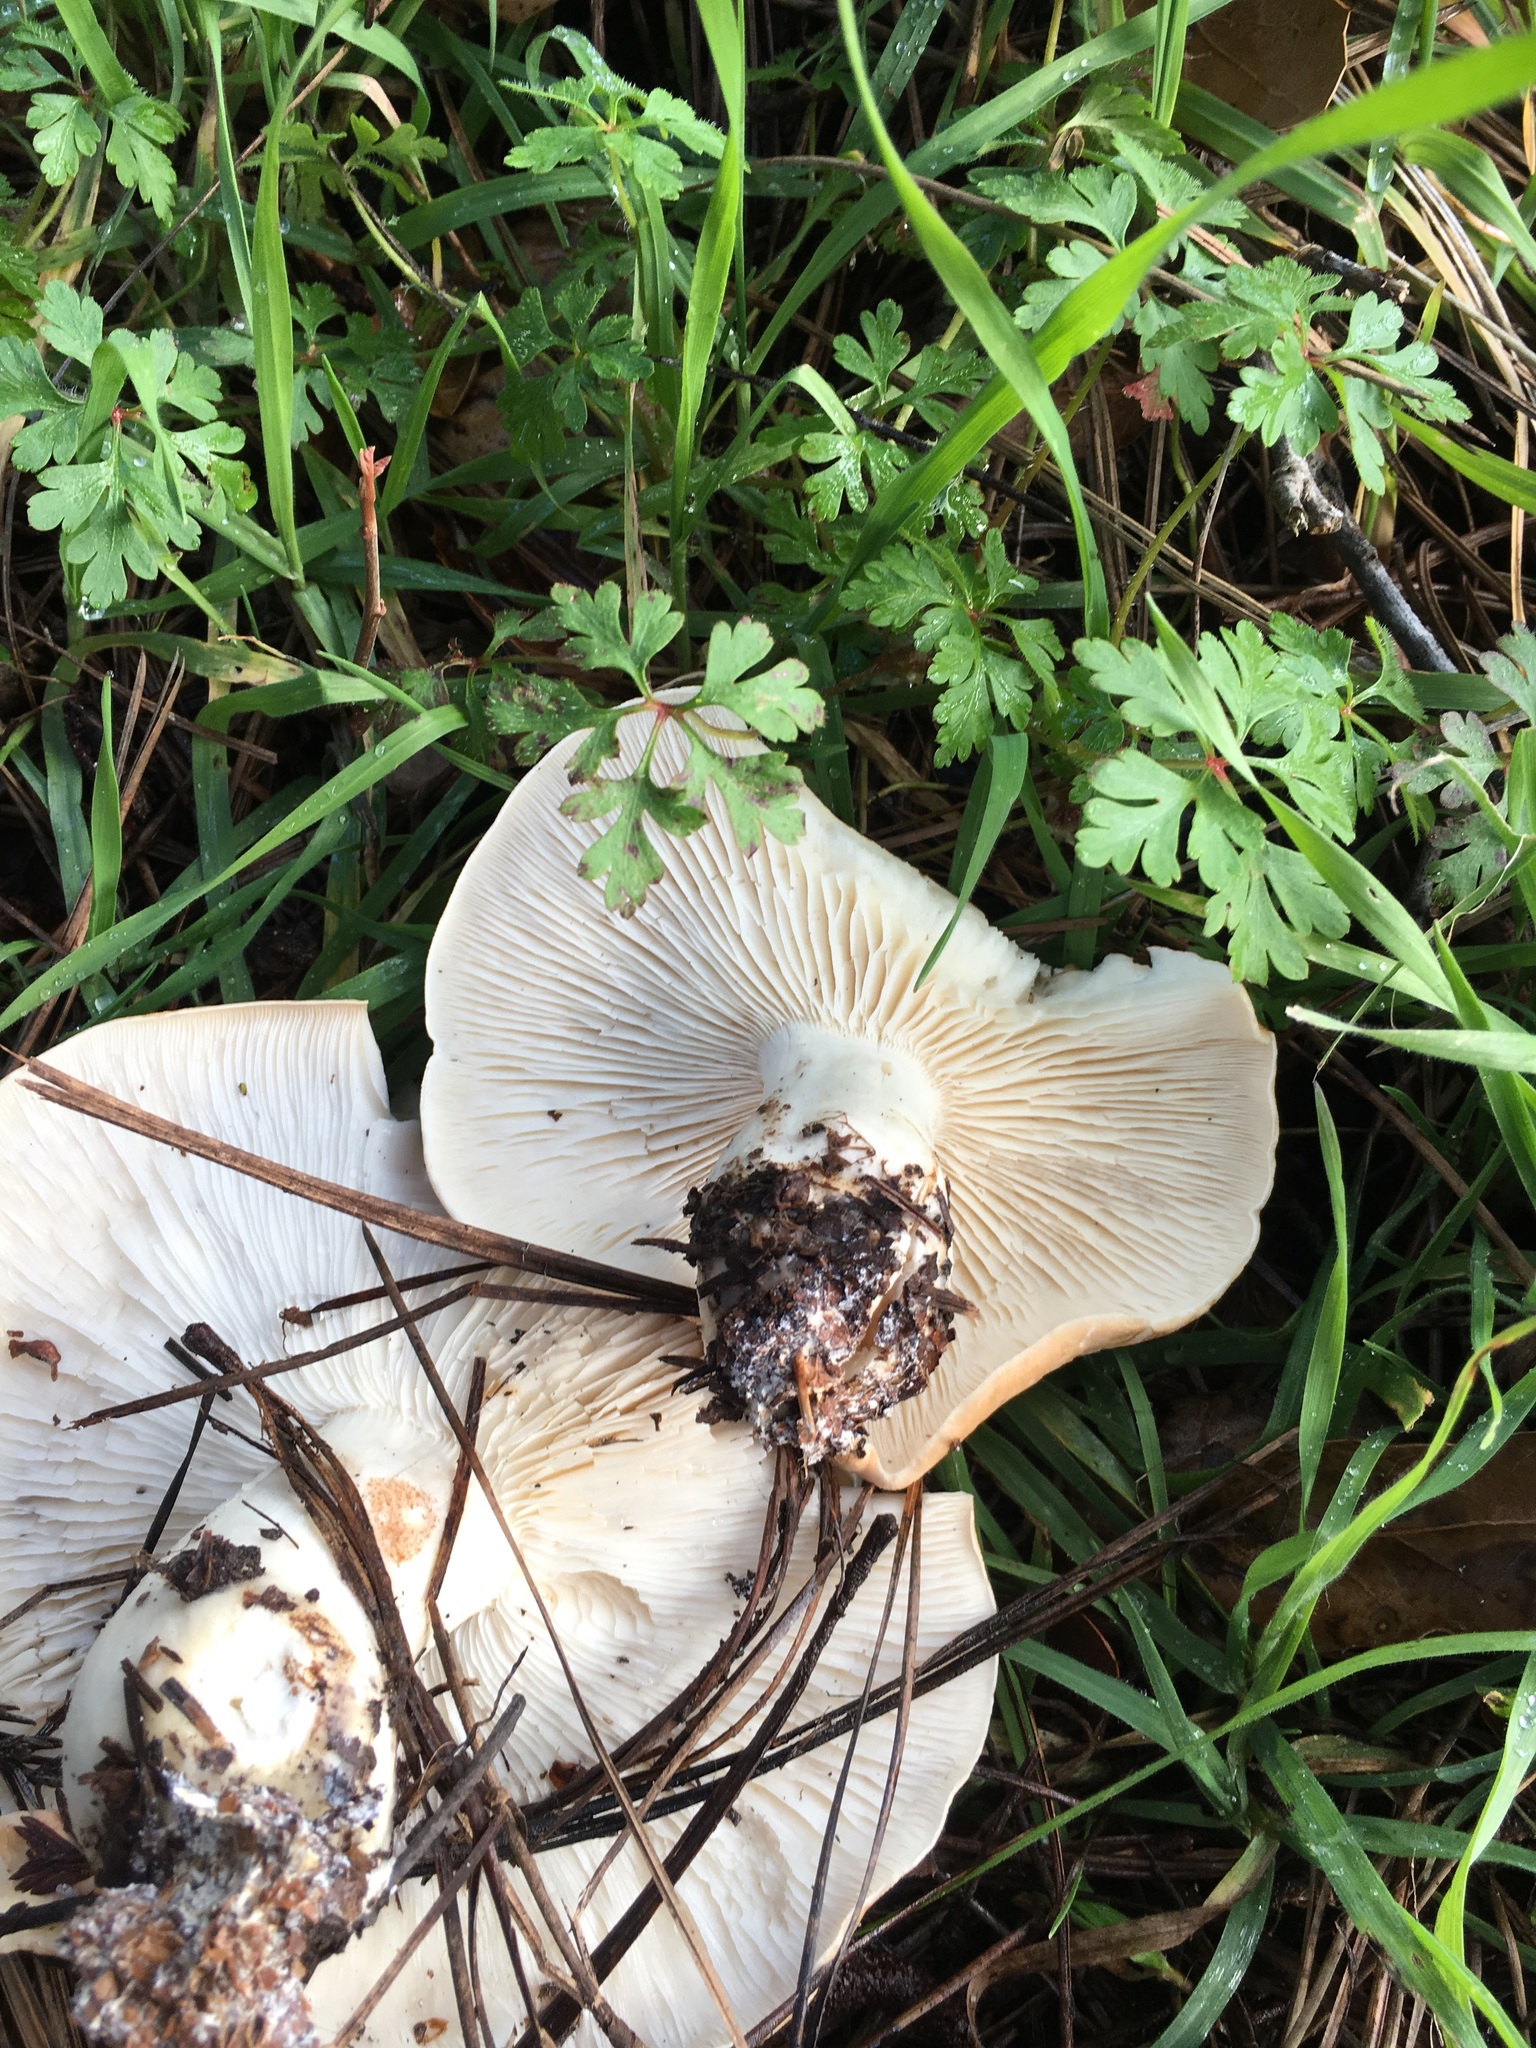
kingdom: Fungi
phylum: Basidiomycota
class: Agaricomycetes
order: Agaricales
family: Tricholomataceae
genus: Leucopaxillus
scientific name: Leucopaxillus gentianeus
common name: Bitter funnel
